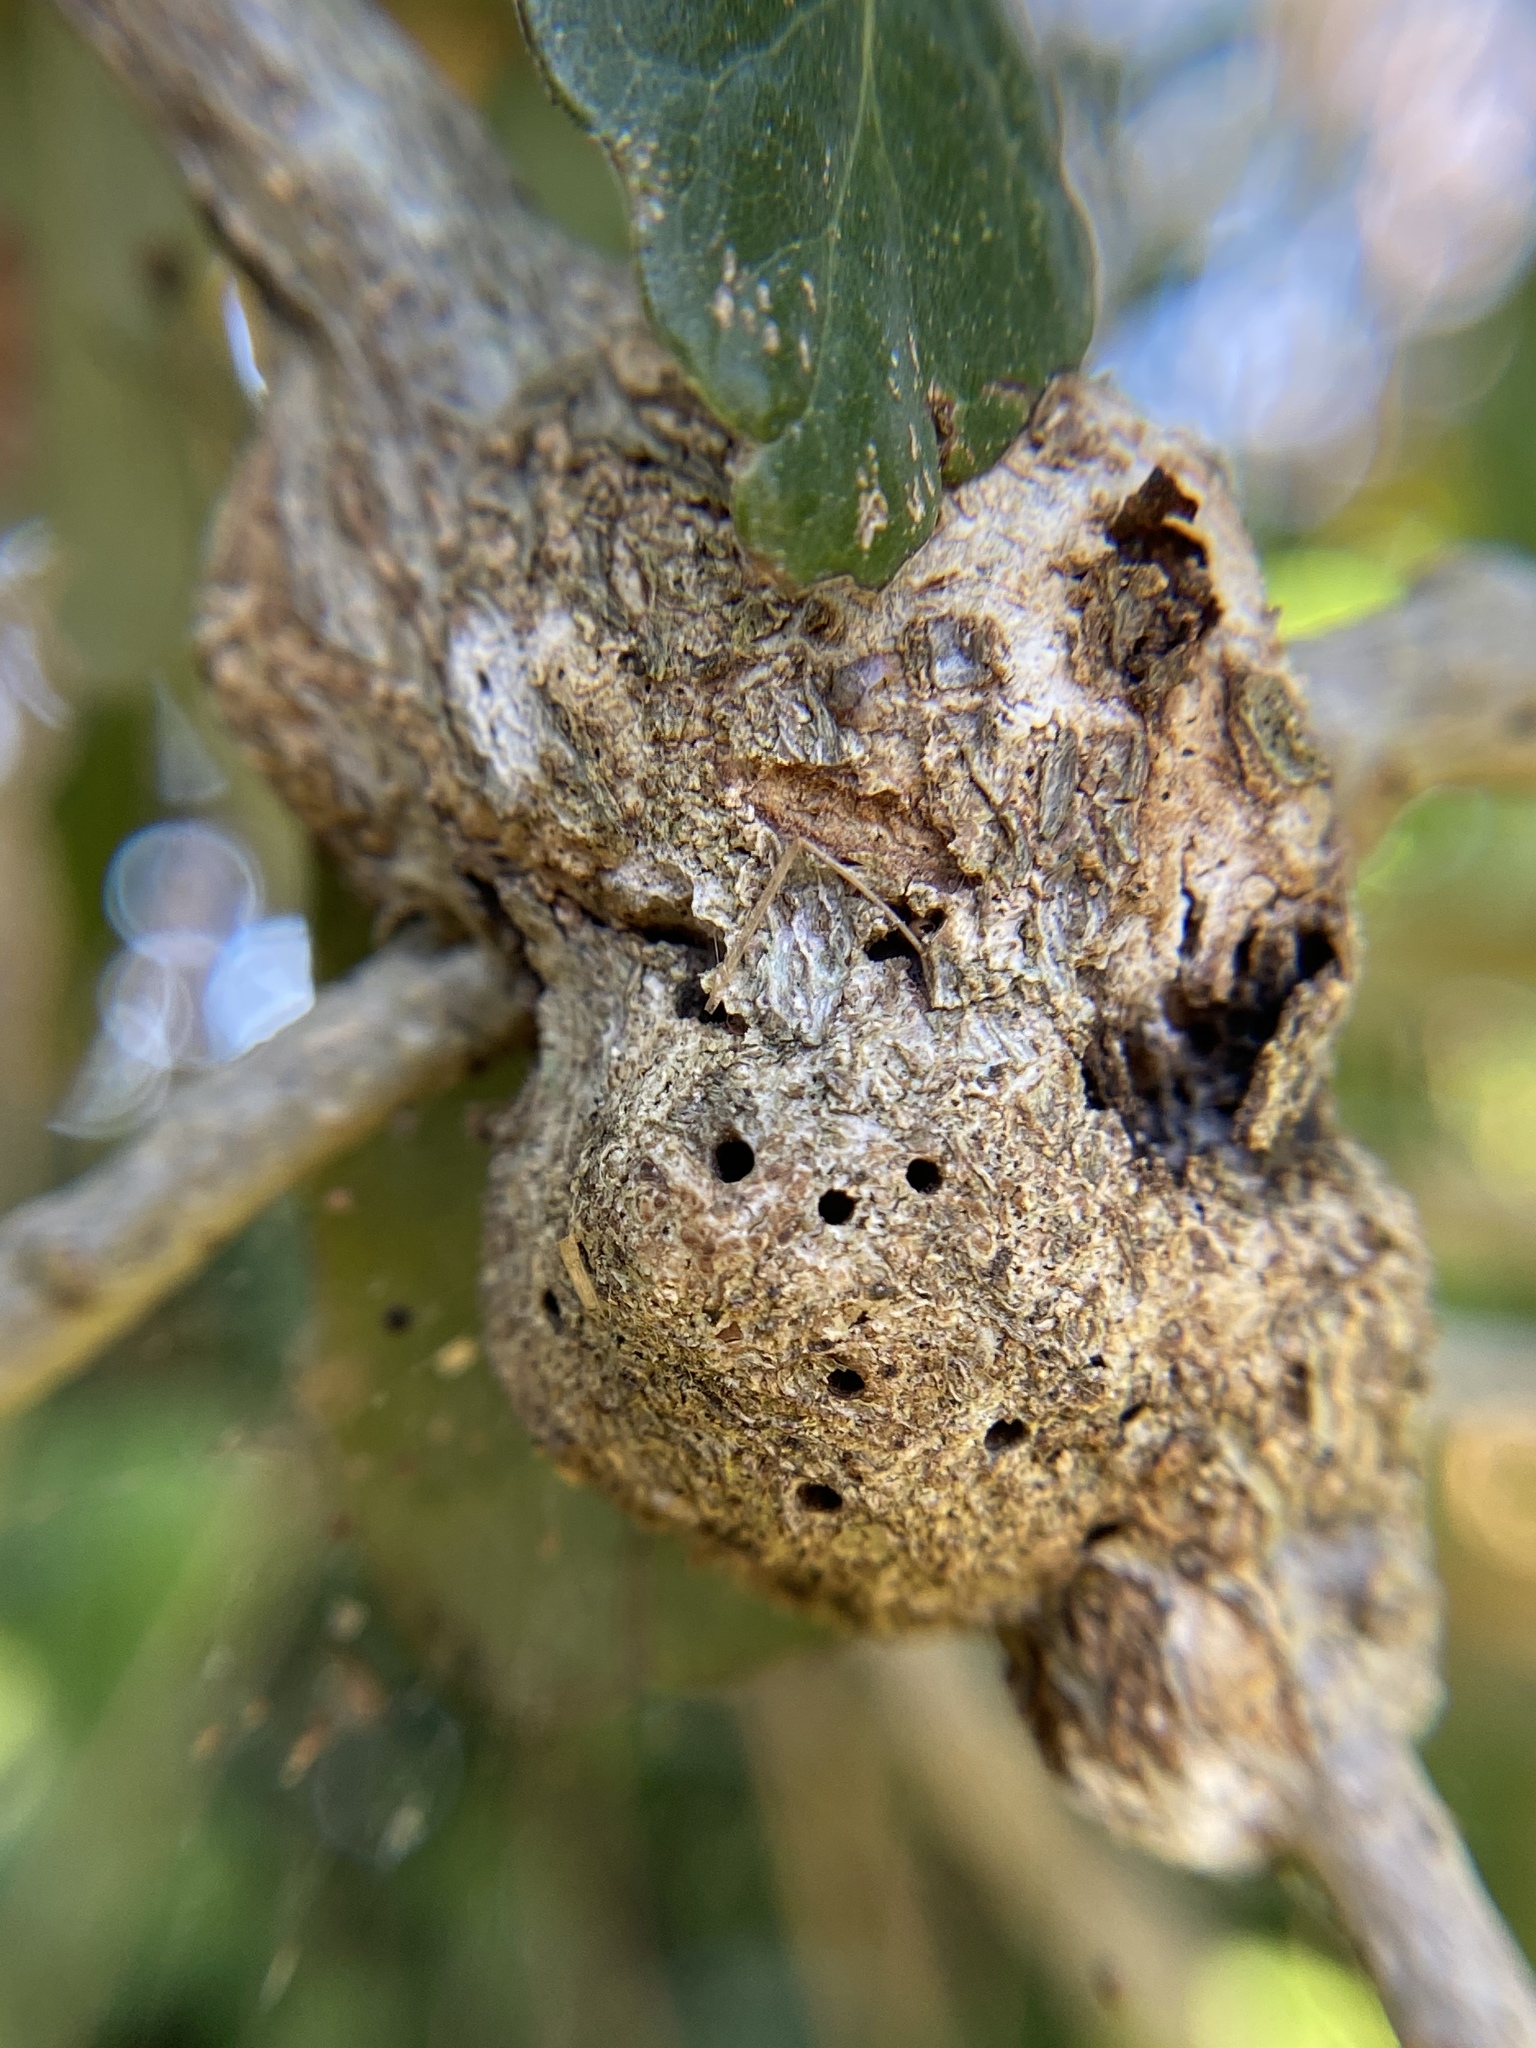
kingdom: Animalia
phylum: Arthropoda
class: Insecta
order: Hymenoptera
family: Cynipidae
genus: Callirhytis
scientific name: Callirhytis
